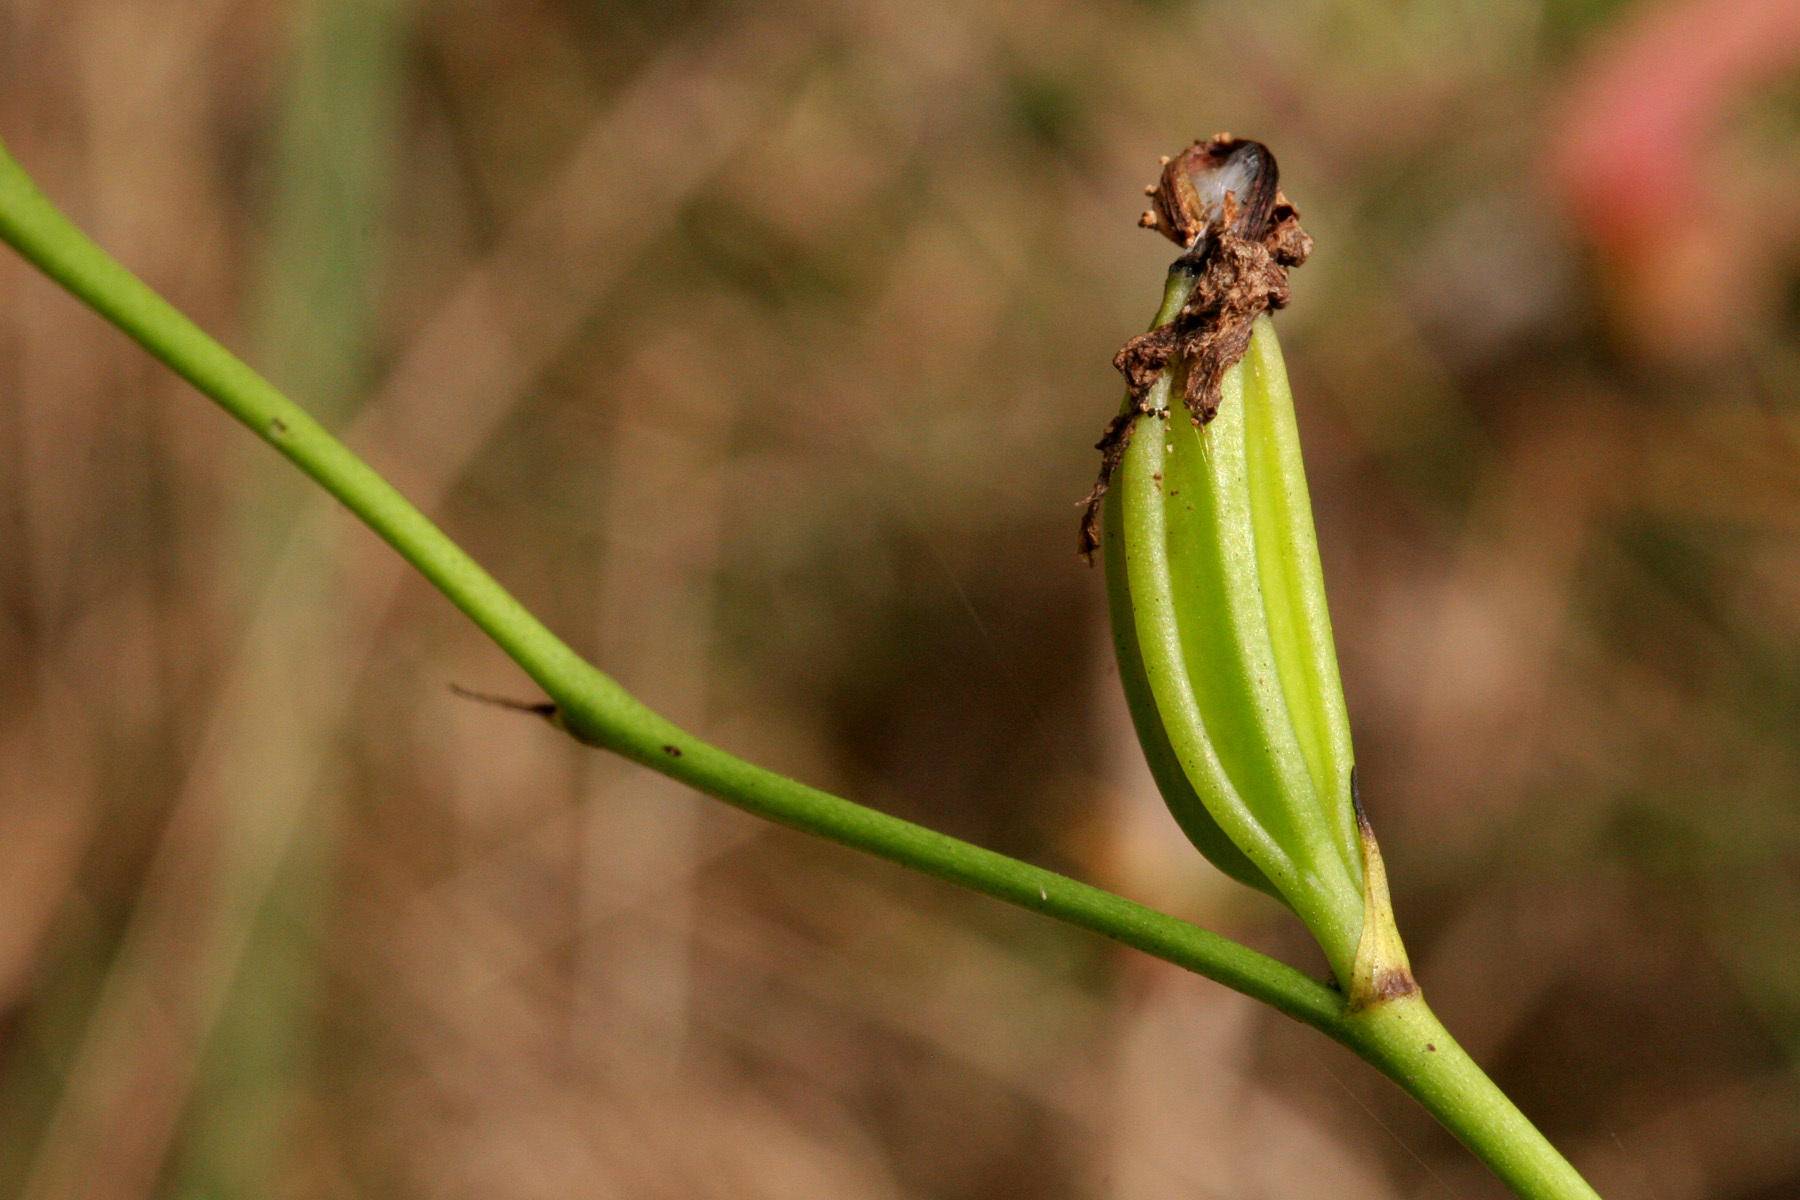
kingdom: Plantae
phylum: Tracheophyta
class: Liliopsida
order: Asparagales
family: Orchidaceae
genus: Calopogon
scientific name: Calopogon tuberosus
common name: Grass-pink
